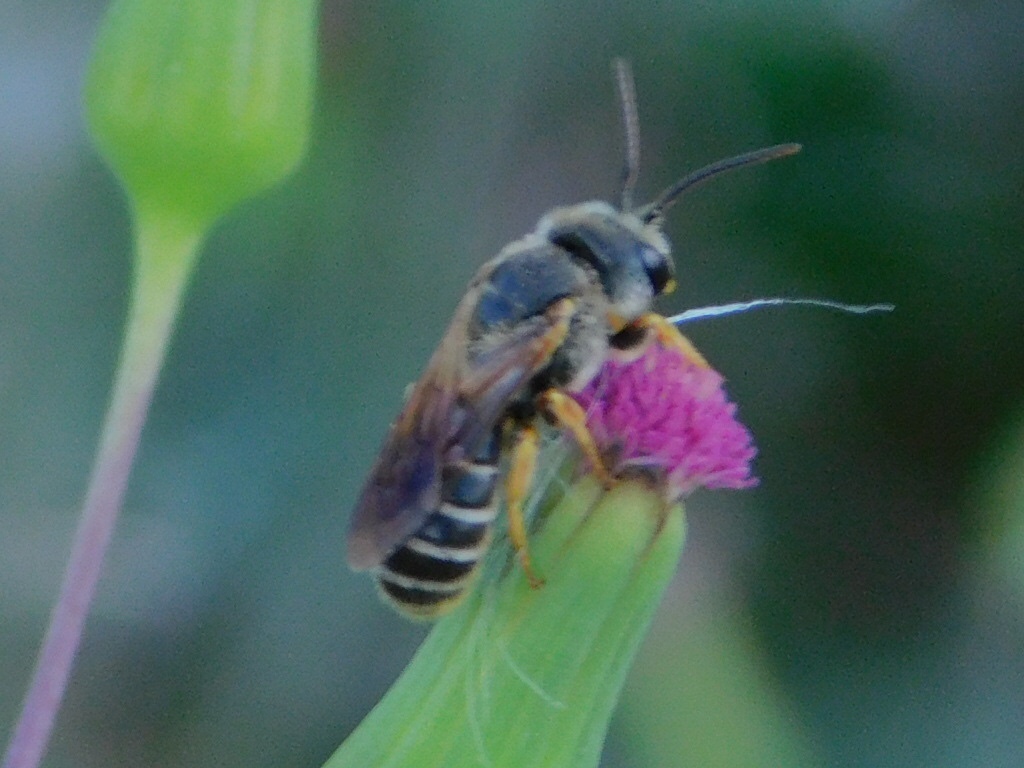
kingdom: Animalia
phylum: Arthropoda
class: Insecta
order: Hymenoptera
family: Halictidae
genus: Halictus
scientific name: Halictus poeyi
